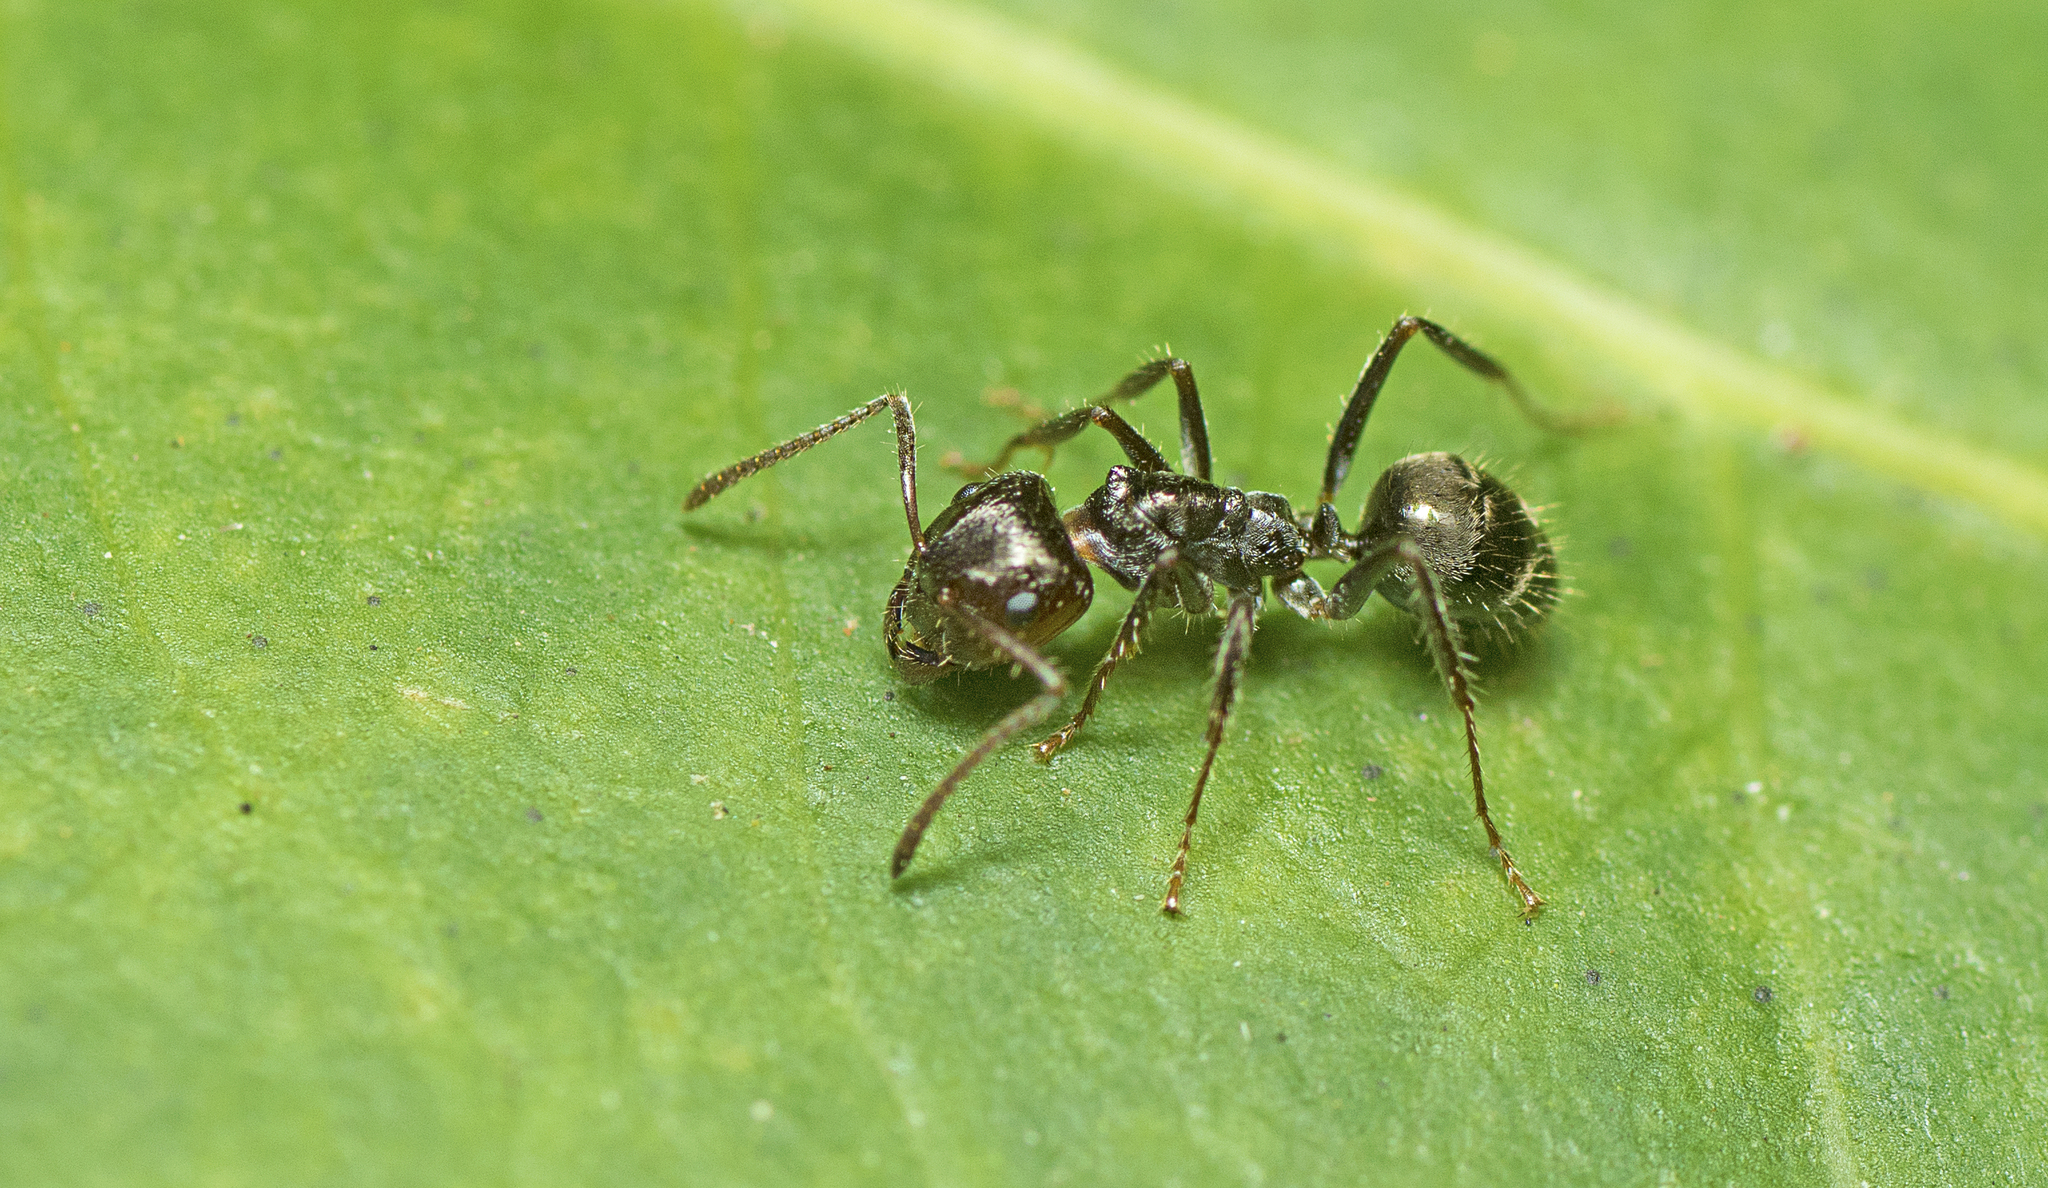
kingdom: Animalia
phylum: Arthropoda
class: Insecta
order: Hymenoptera
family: Formicidae
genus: Notoncus
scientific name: Notoncus capitatus
